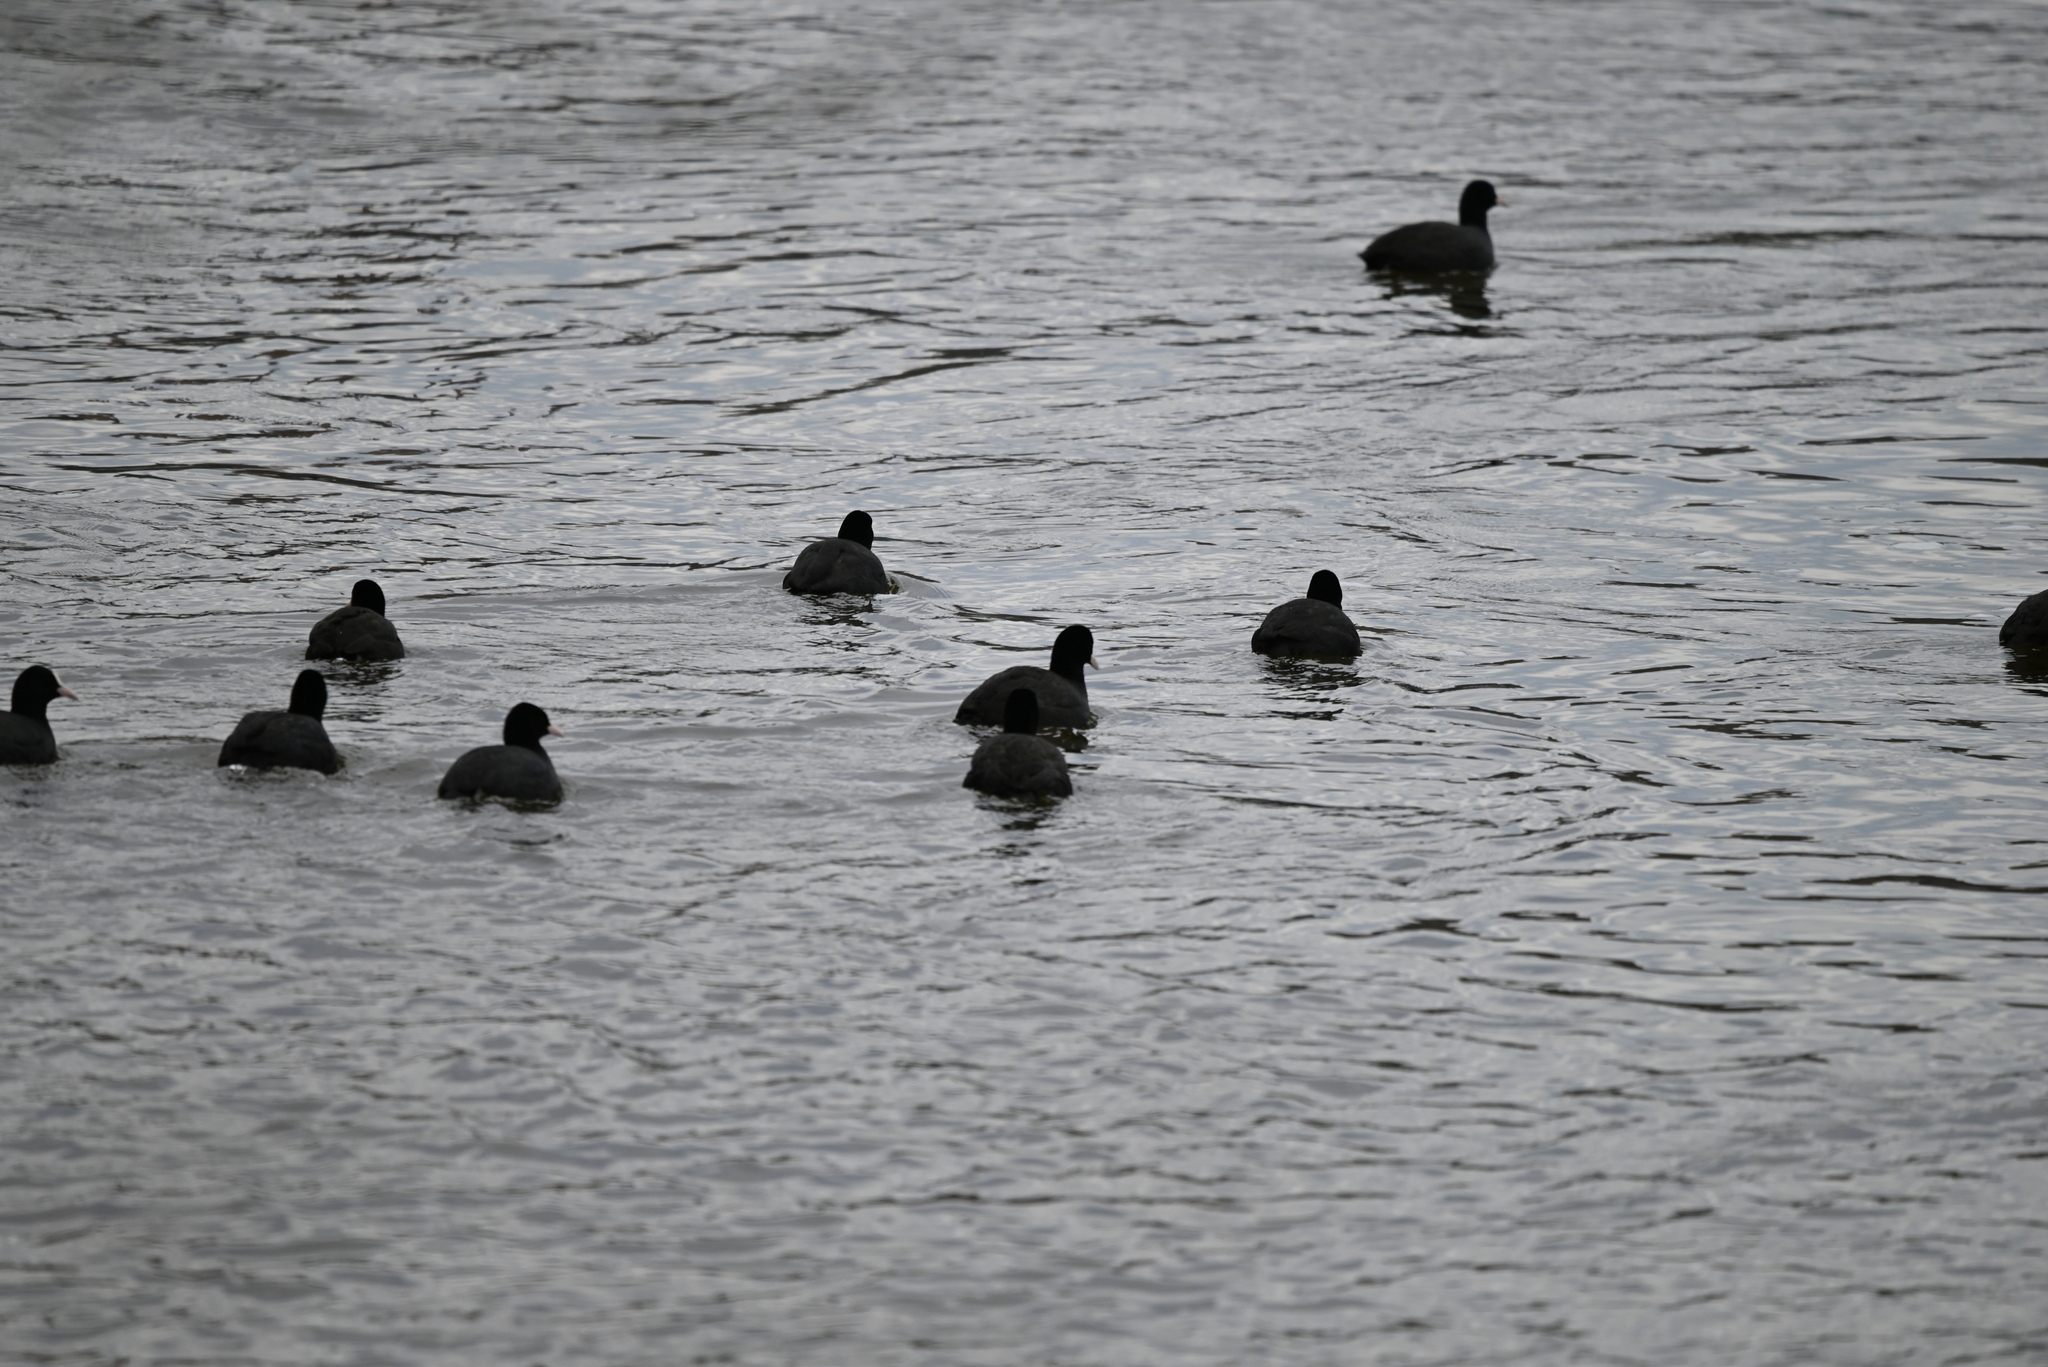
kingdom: Animalia
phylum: Chordata
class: Aves
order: Gruiformes
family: Rallidae
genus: Fulica
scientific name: Fulica atra
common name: Eurasian coot
